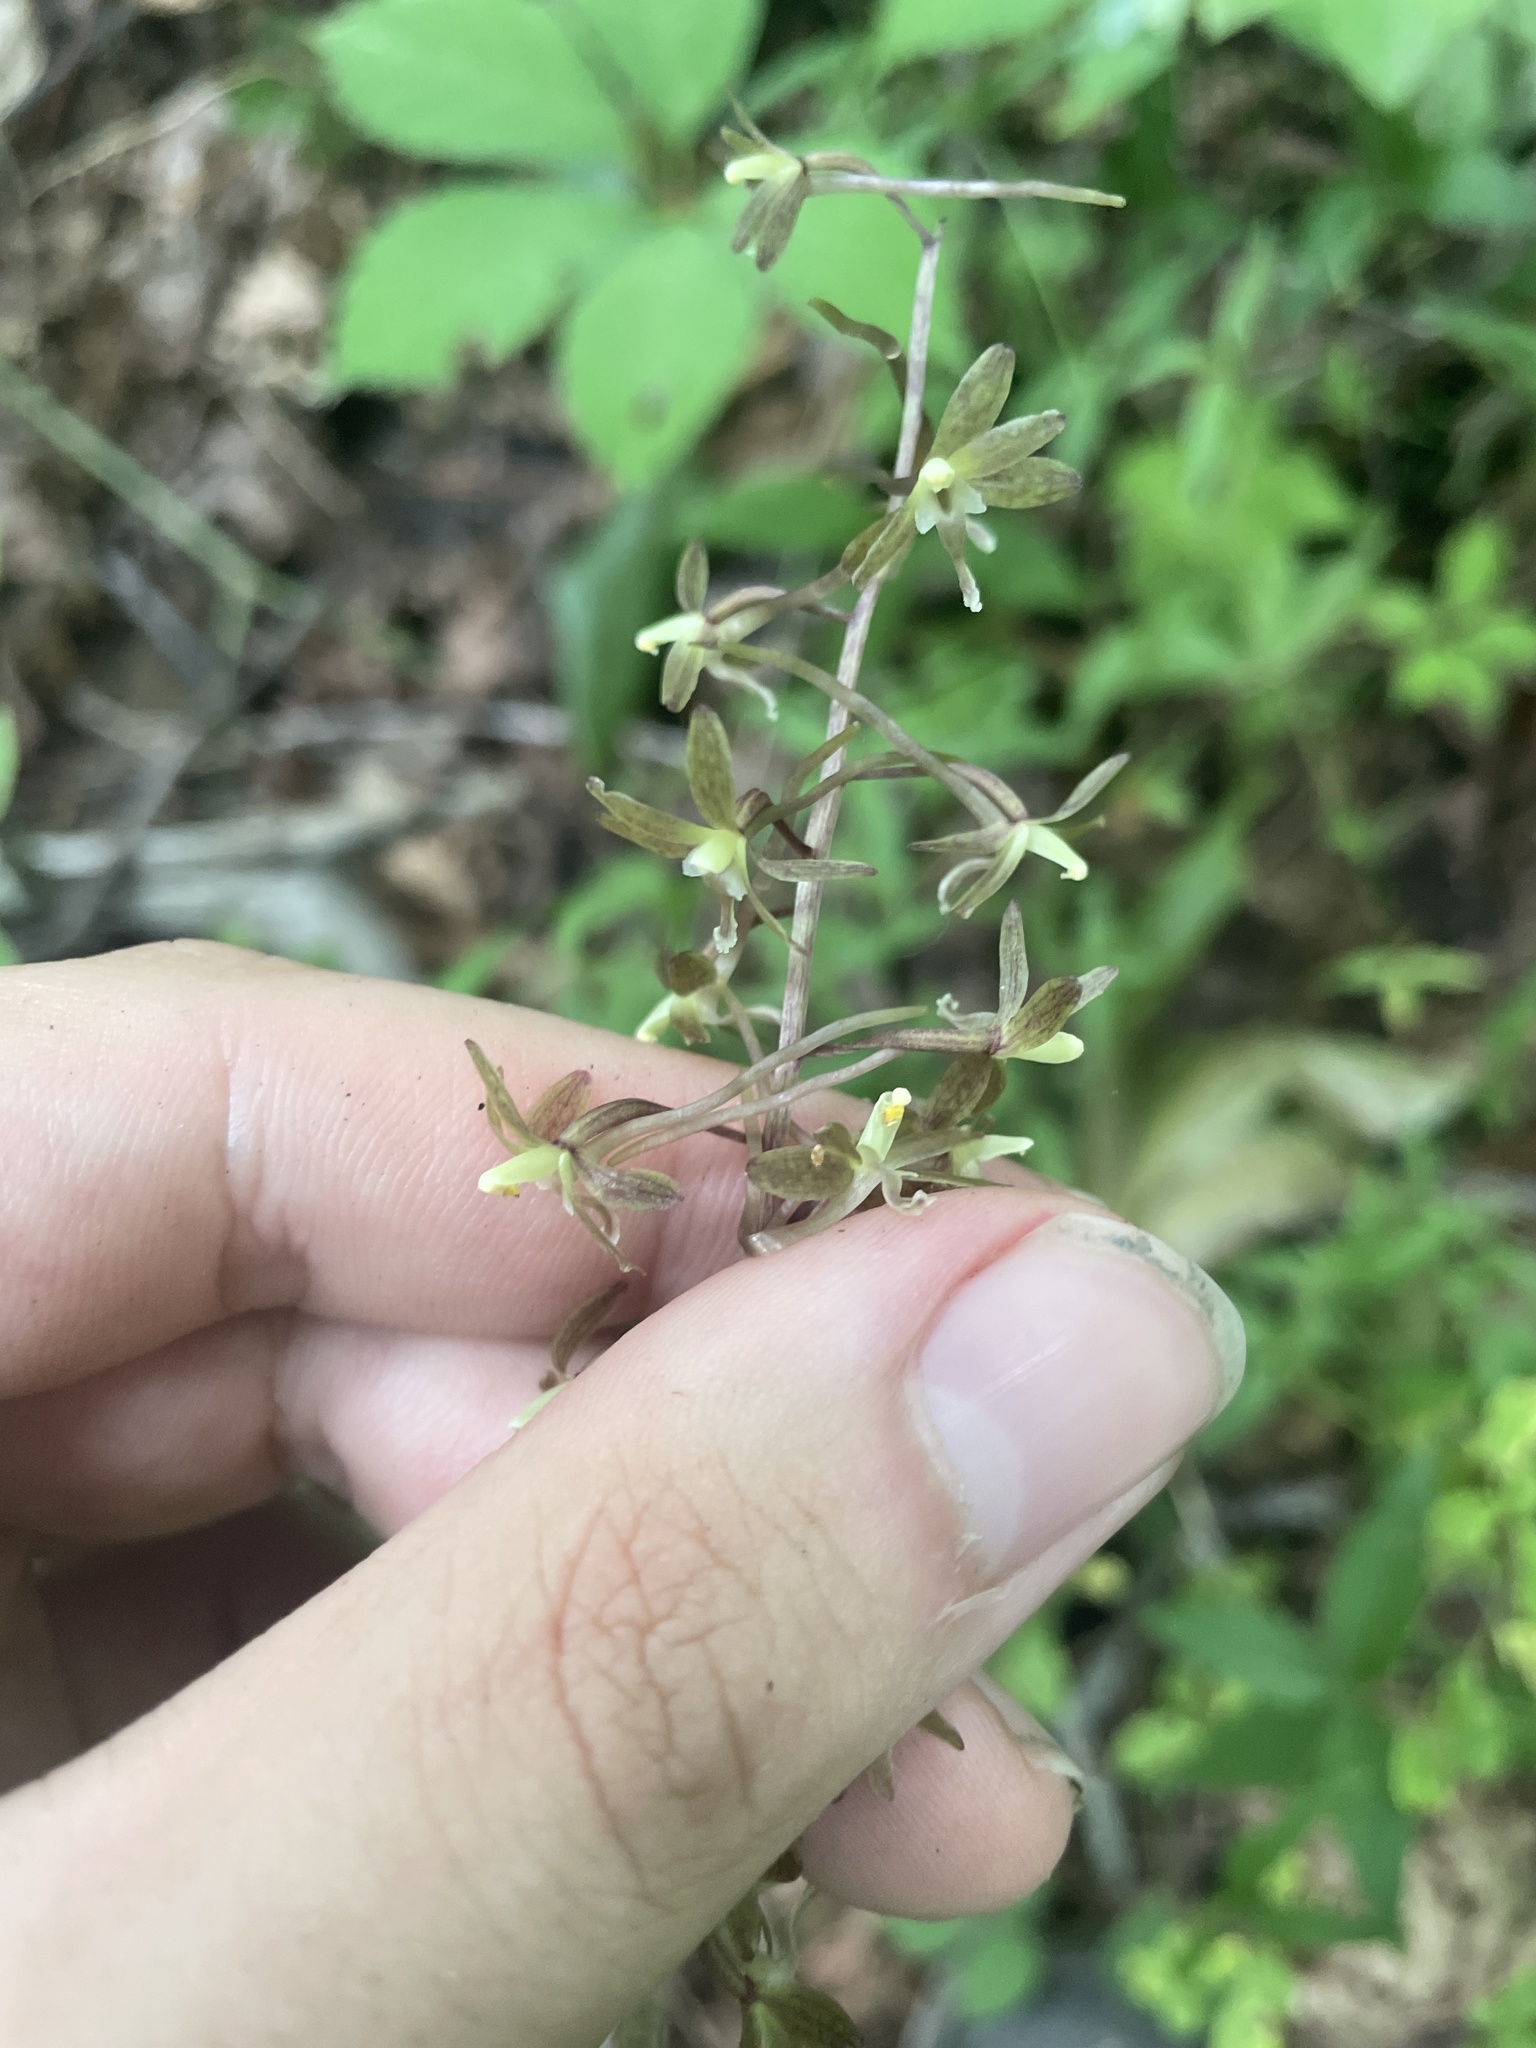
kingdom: Plantae
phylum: Tracheophyta
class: Liliopsida
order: Asparagales
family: Orchidaceae
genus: Tipularia
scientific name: Tipularia discolor
